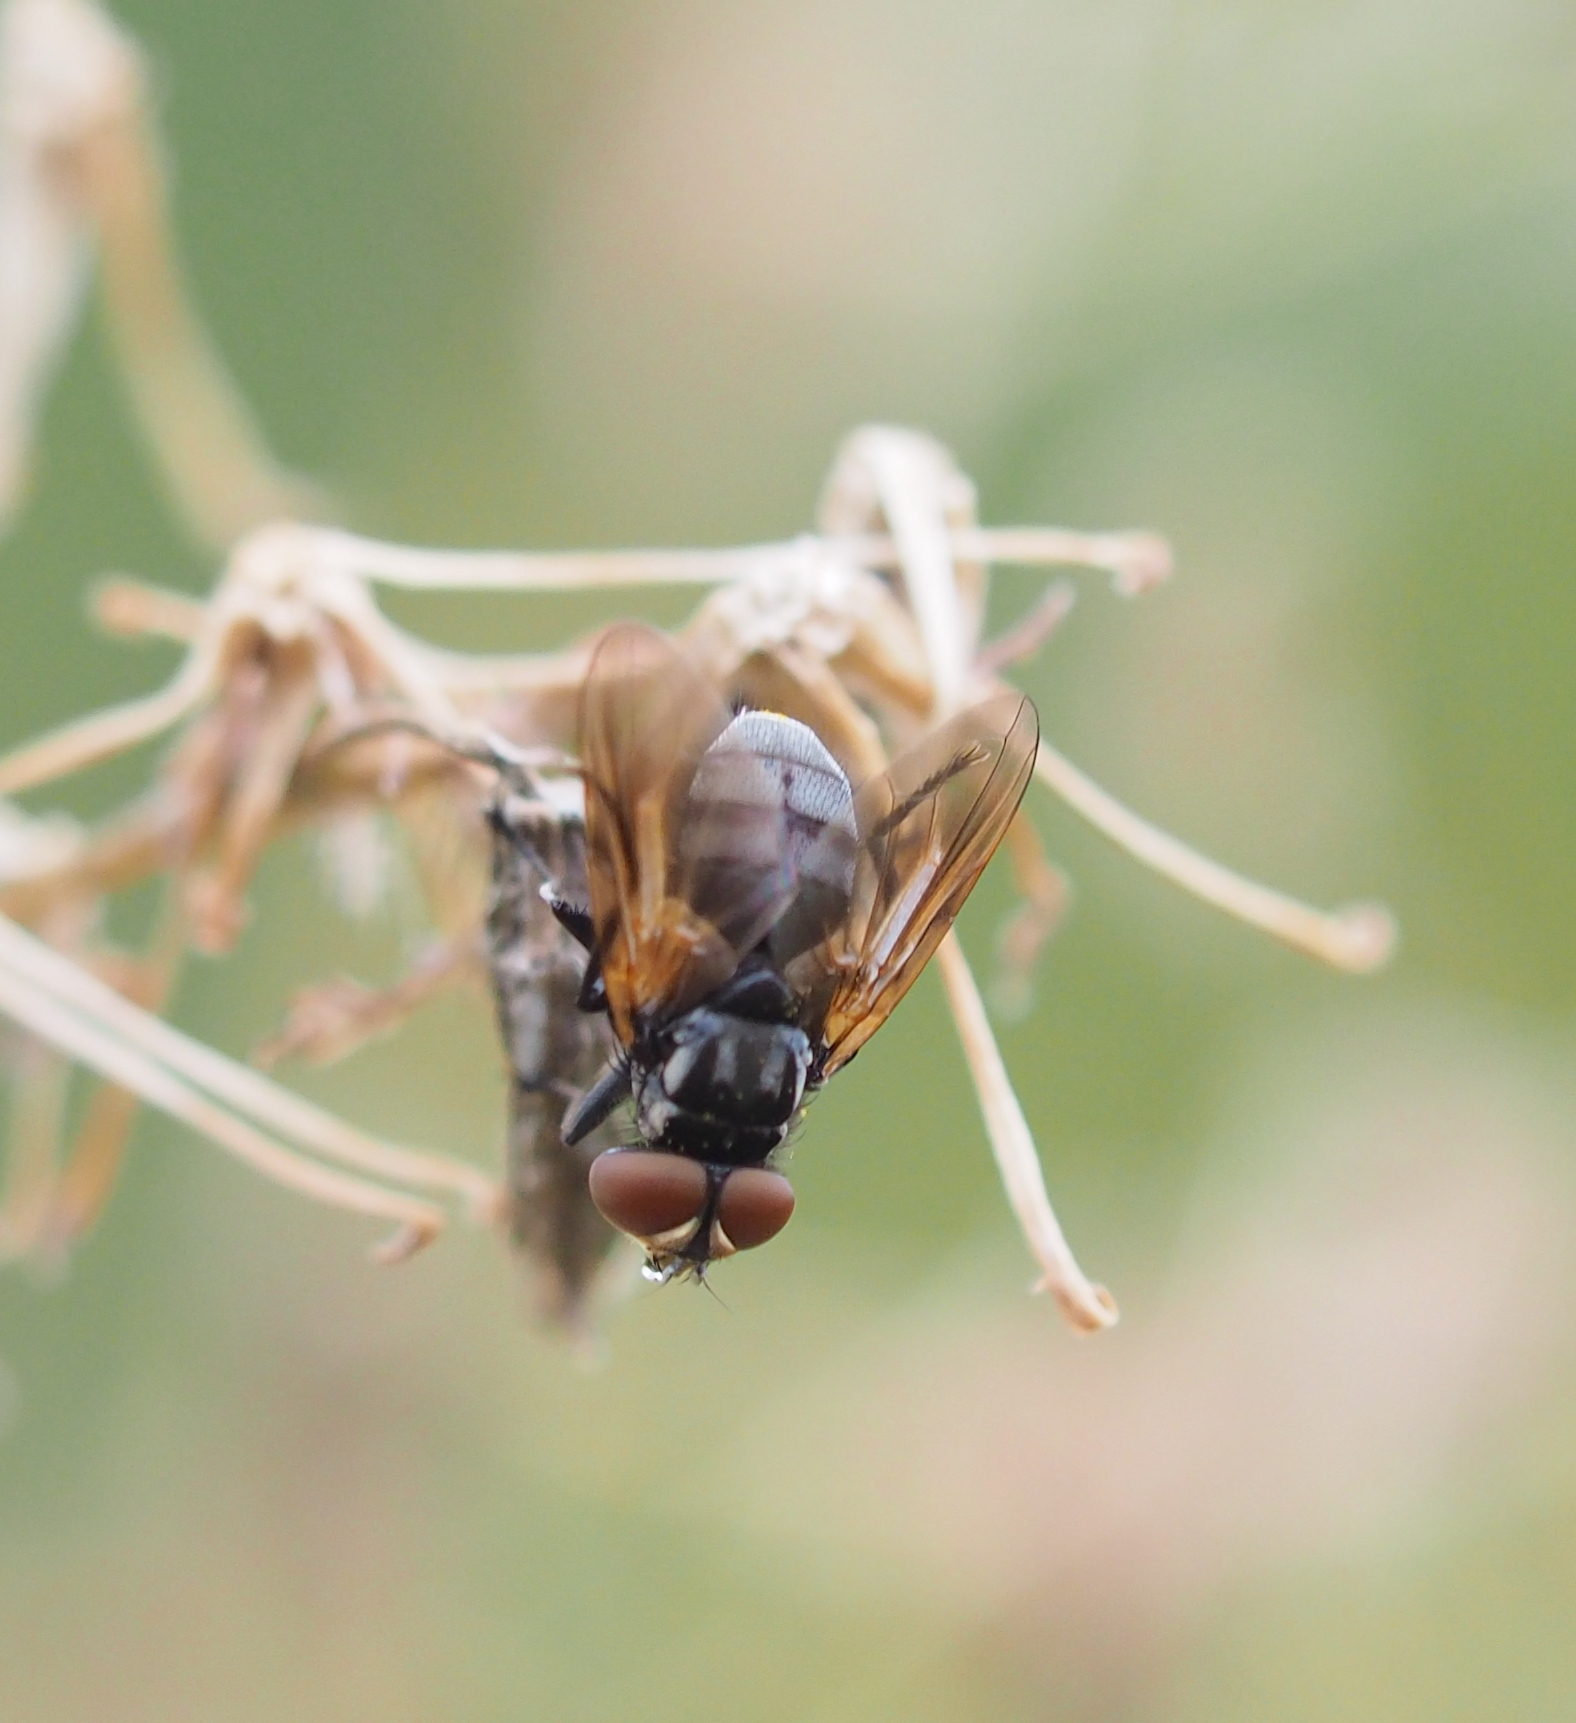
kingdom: Animalia
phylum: Arthropoda
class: Insecta
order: Diptera
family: Tachinidae
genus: Phasia
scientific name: Phasia obesa
